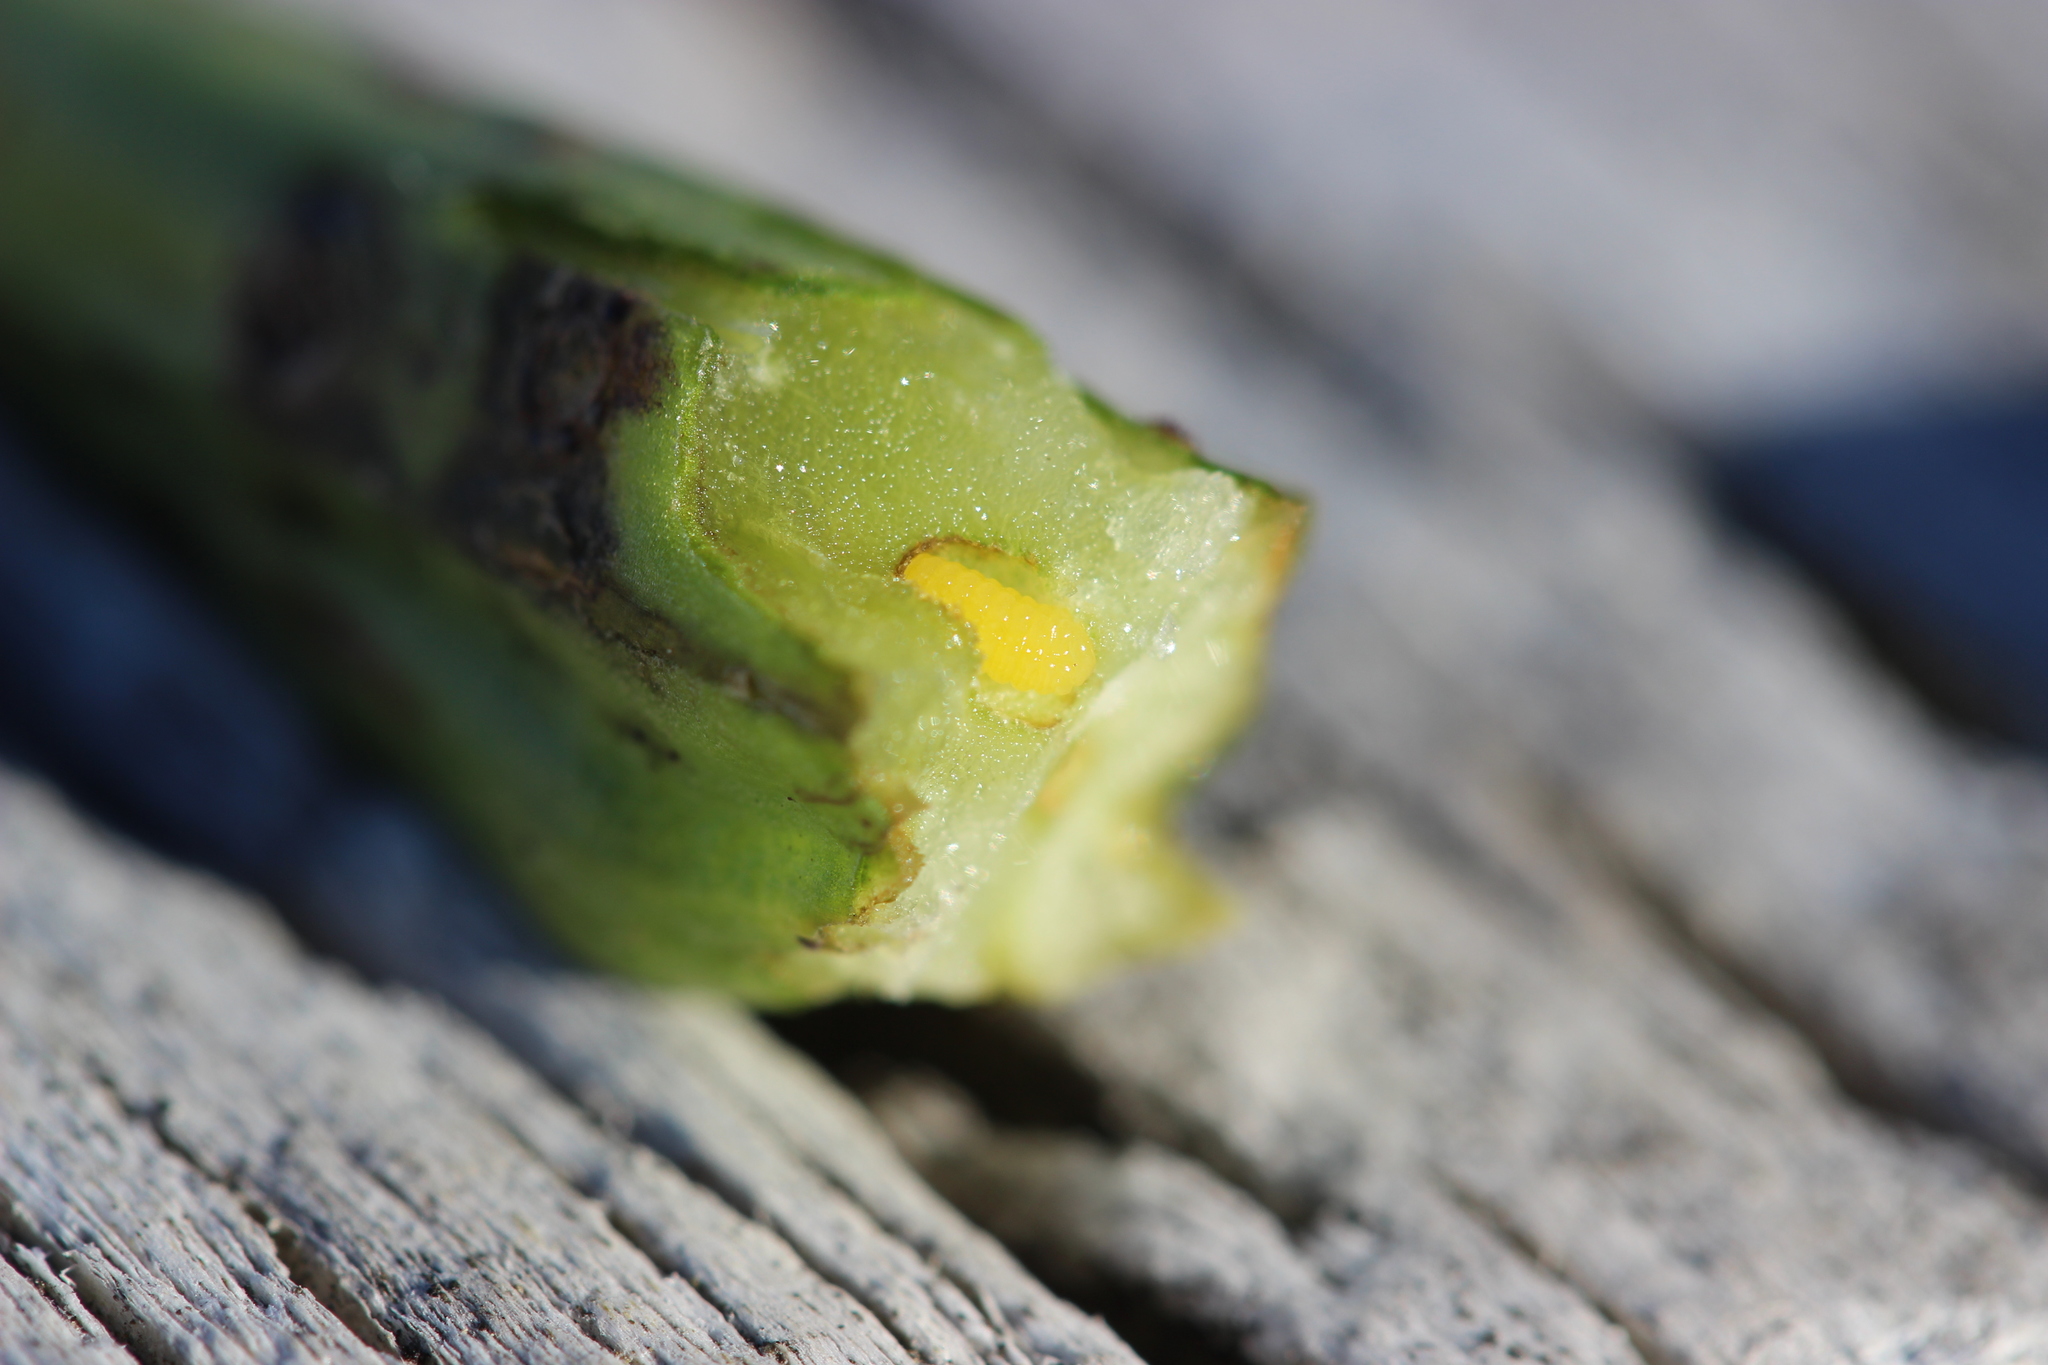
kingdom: Animalia
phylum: Arthropoda
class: Insecta
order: Hymenoptera
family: Cynipidae
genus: Phanacis
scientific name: Phanacis hypochoeridis
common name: Gall wasp
